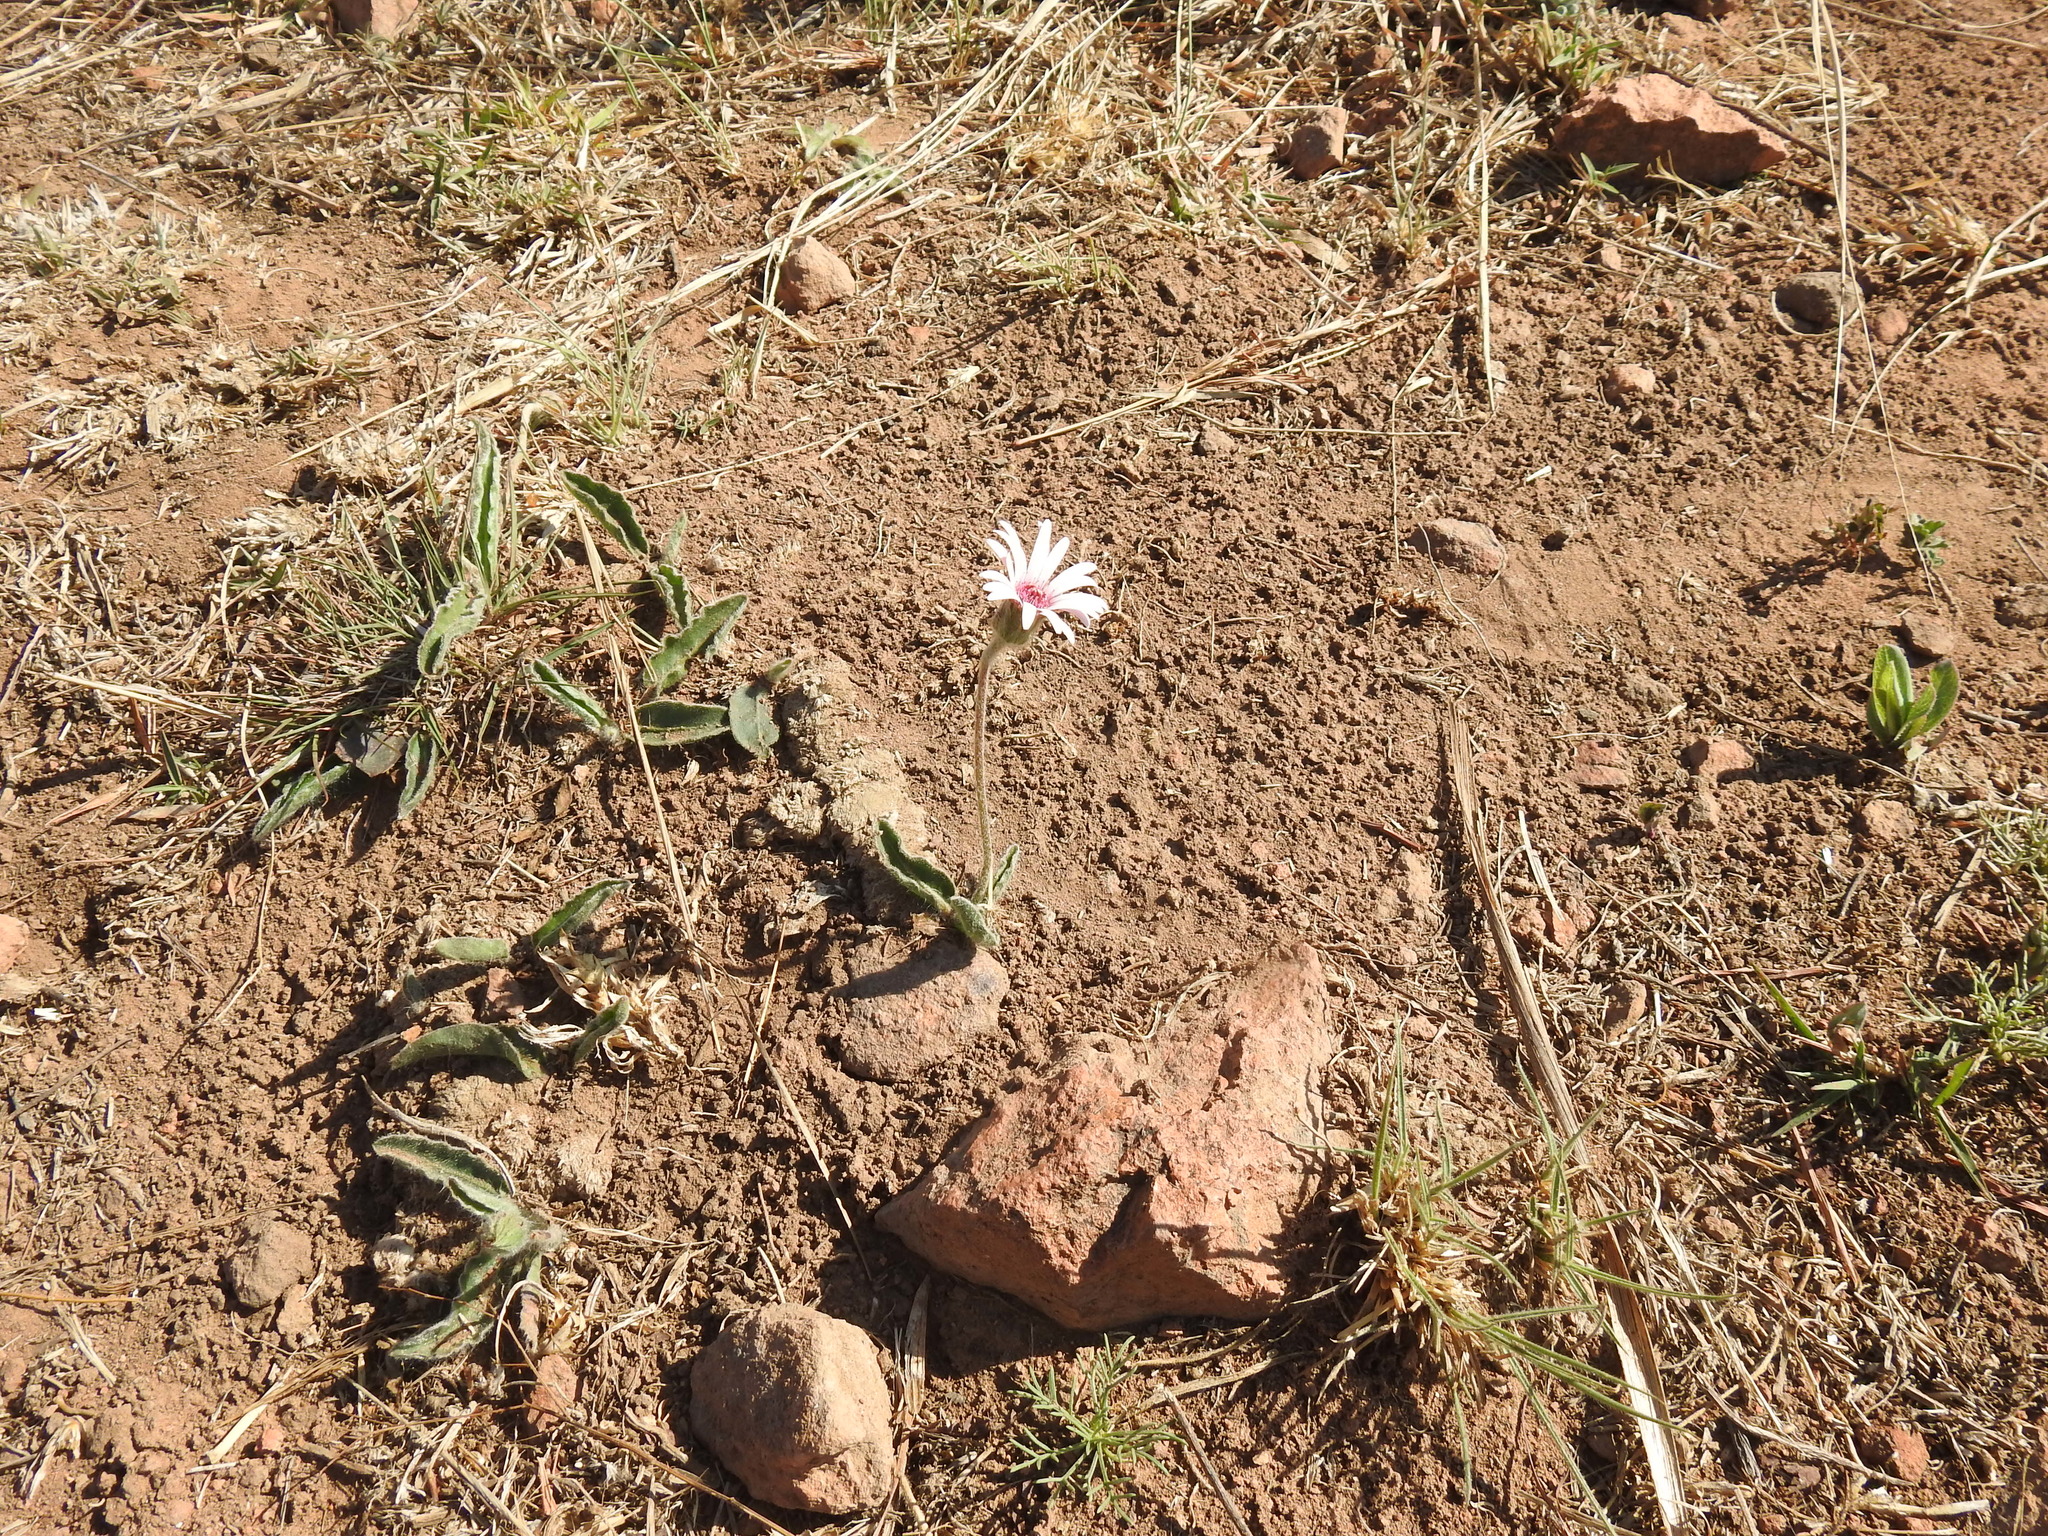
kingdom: Plantae
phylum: Tracheophyta
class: Magnoliopsida
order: Asterales
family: Asteraceae
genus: Gerbera
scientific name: Gerbera viridifolia
